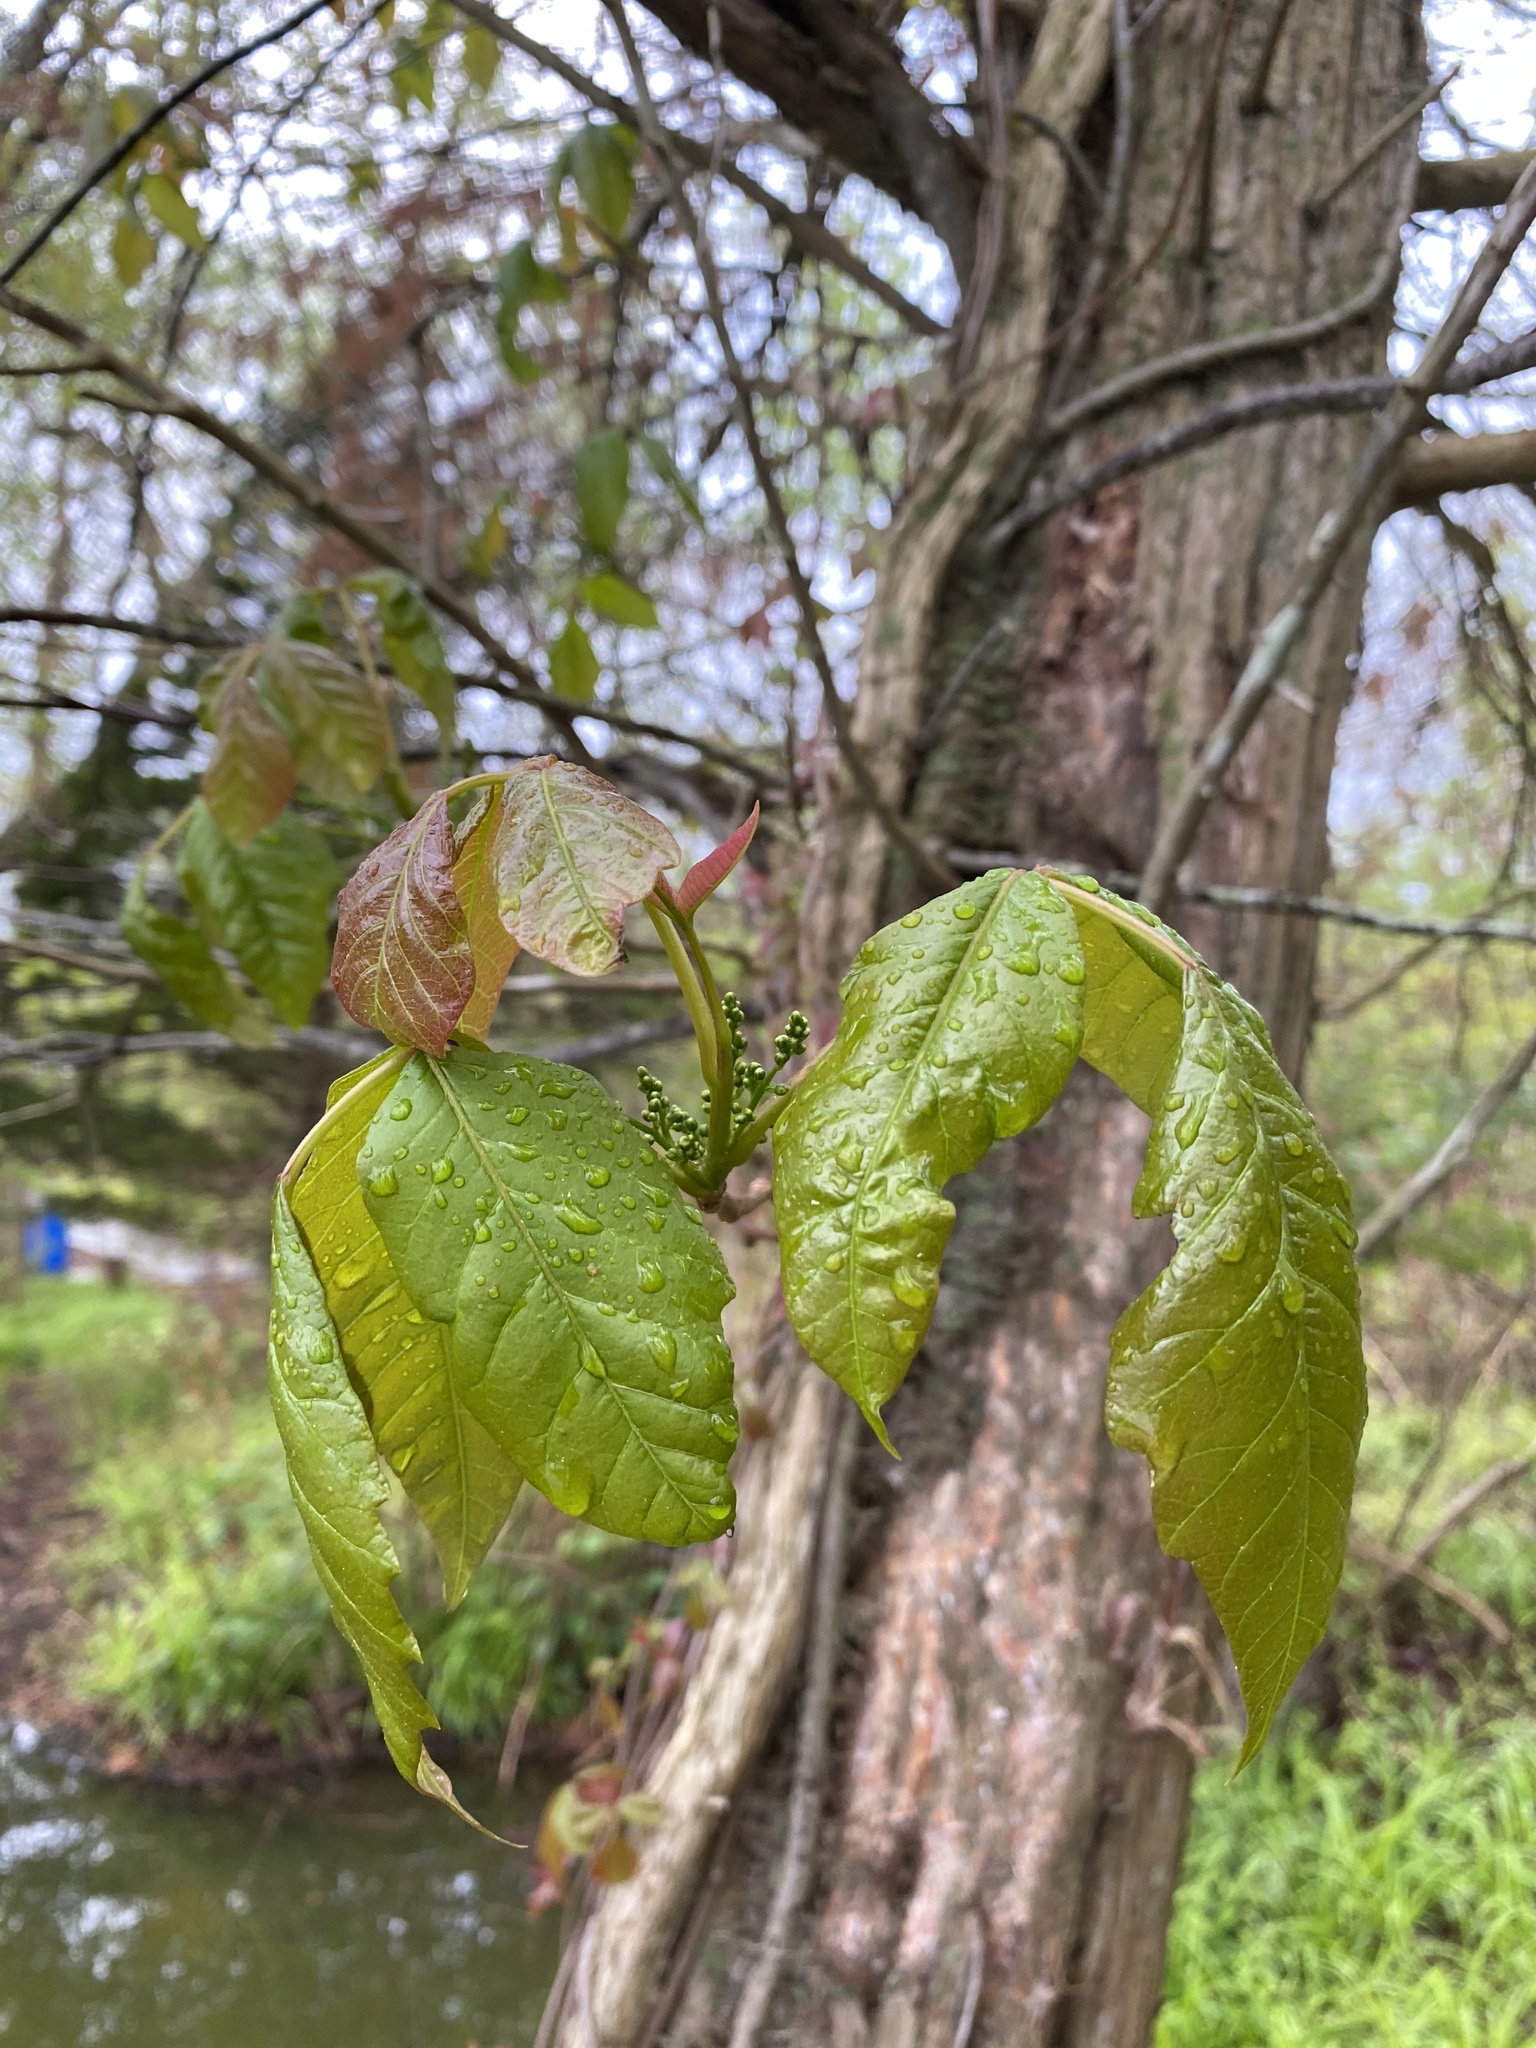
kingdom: Plantae
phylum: Tracheophyta
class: Magnoliopsida
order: Sapindales
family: Anacardiaceae
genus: Toxicodendron
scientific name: Toxicodendron radicans
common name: Poison ivy
